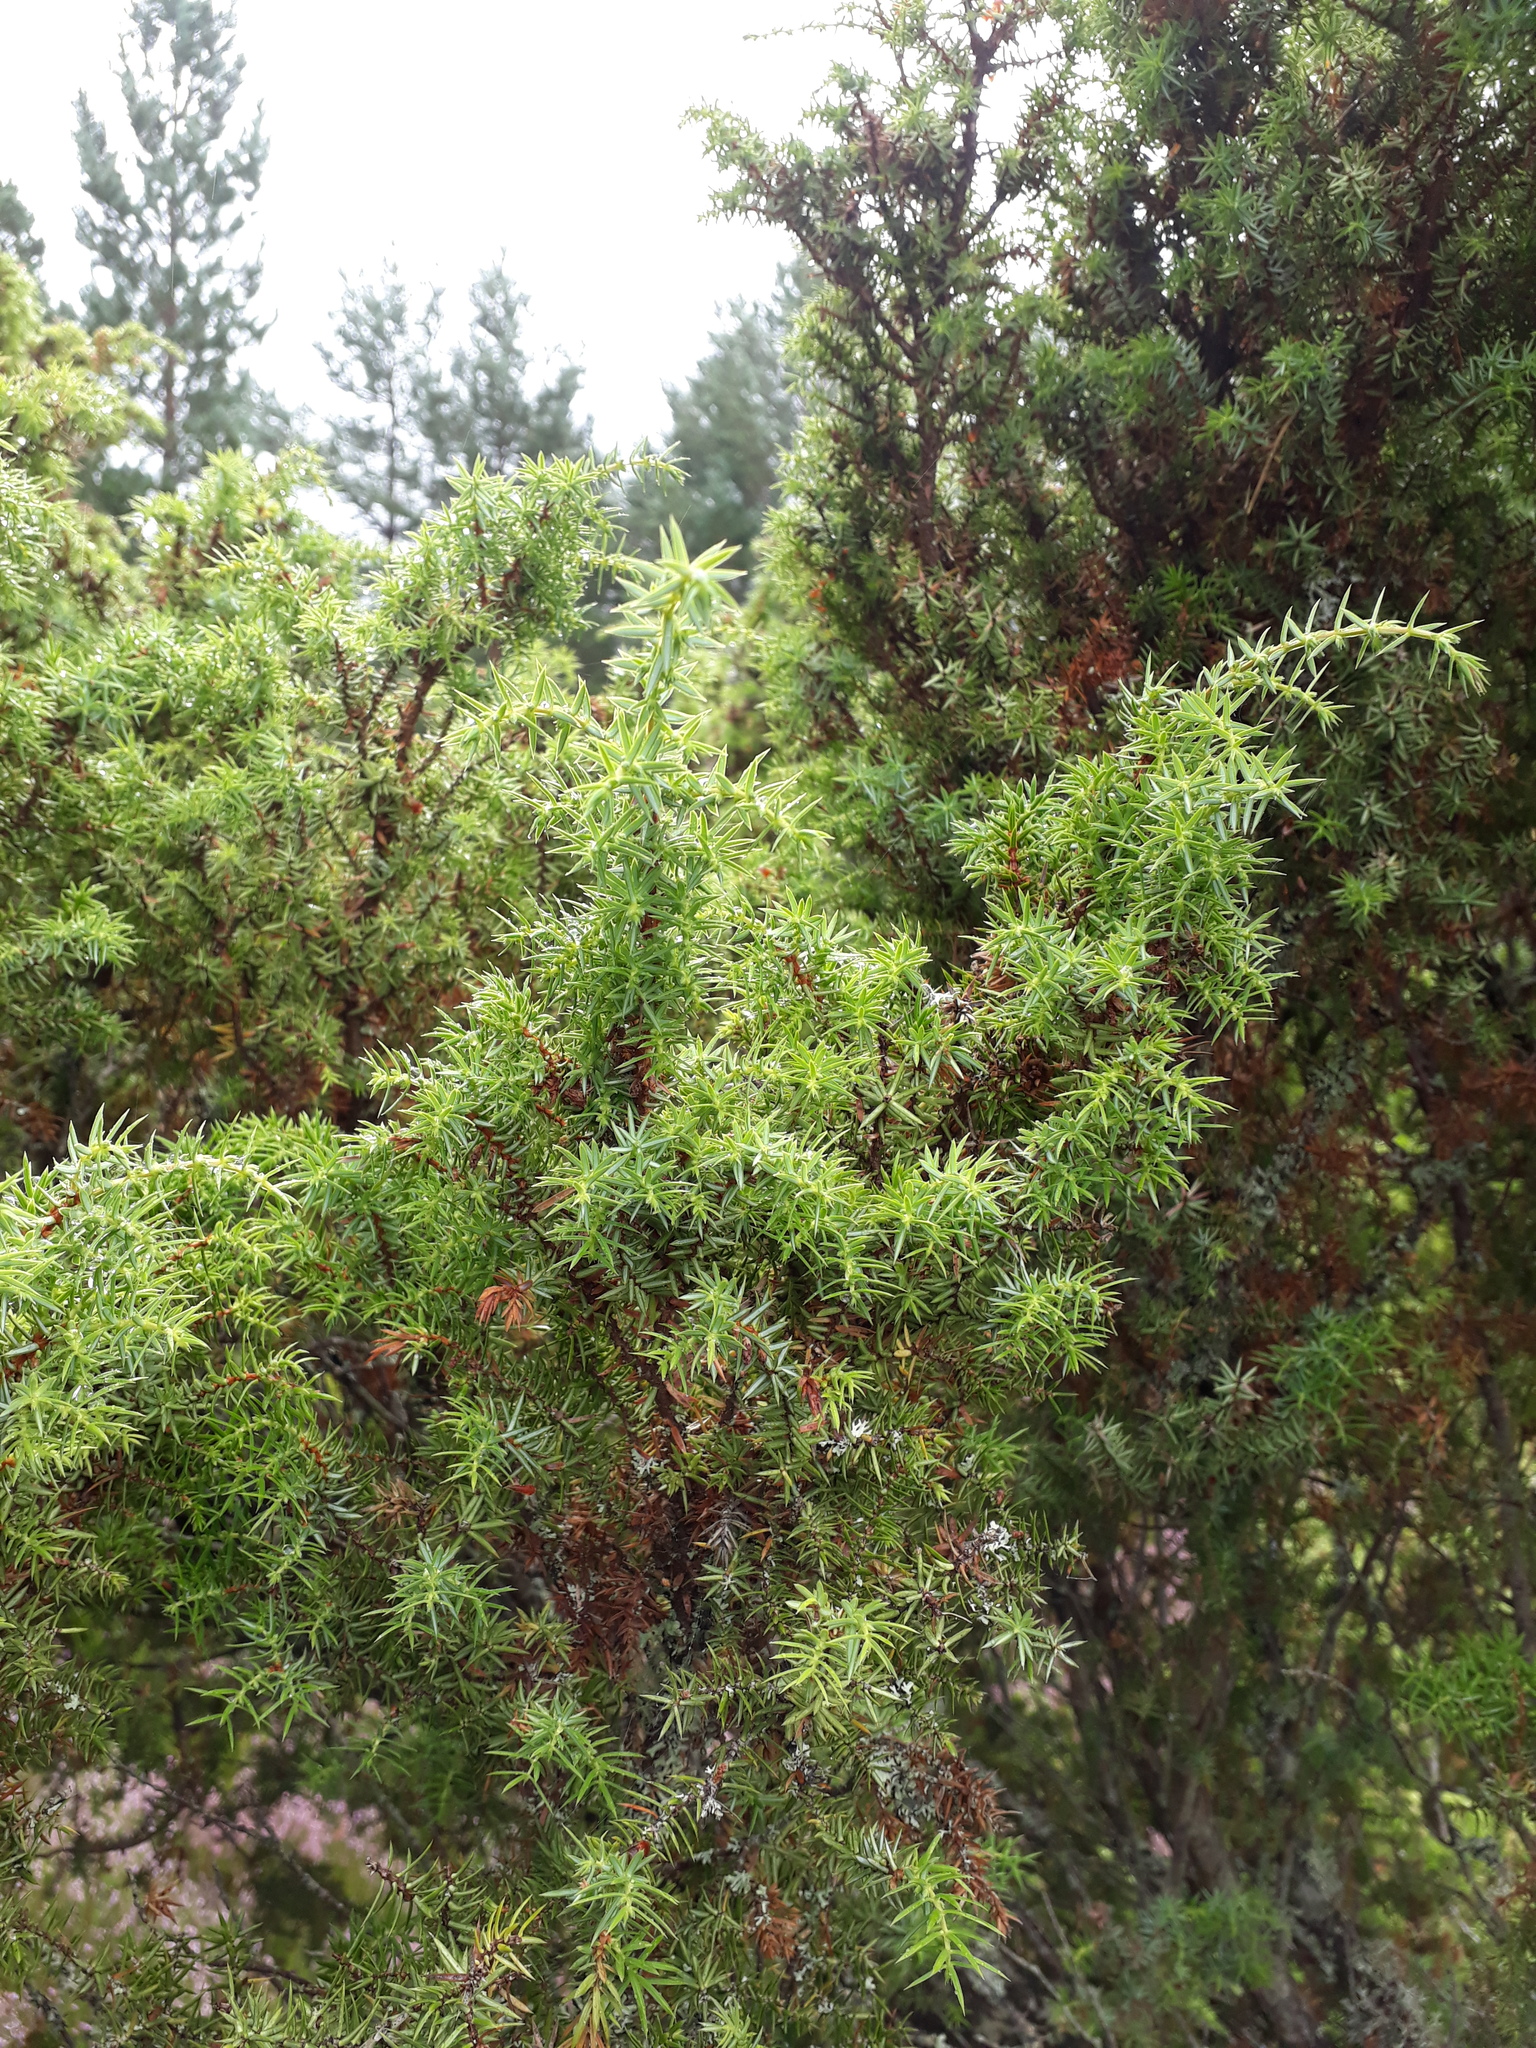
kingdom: Plantae
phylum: Tracheophyta
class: Pinopsida
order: Pinales
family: Cupressaceae
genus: Juniperus
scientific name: Juniperus communis
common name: Common juniper
